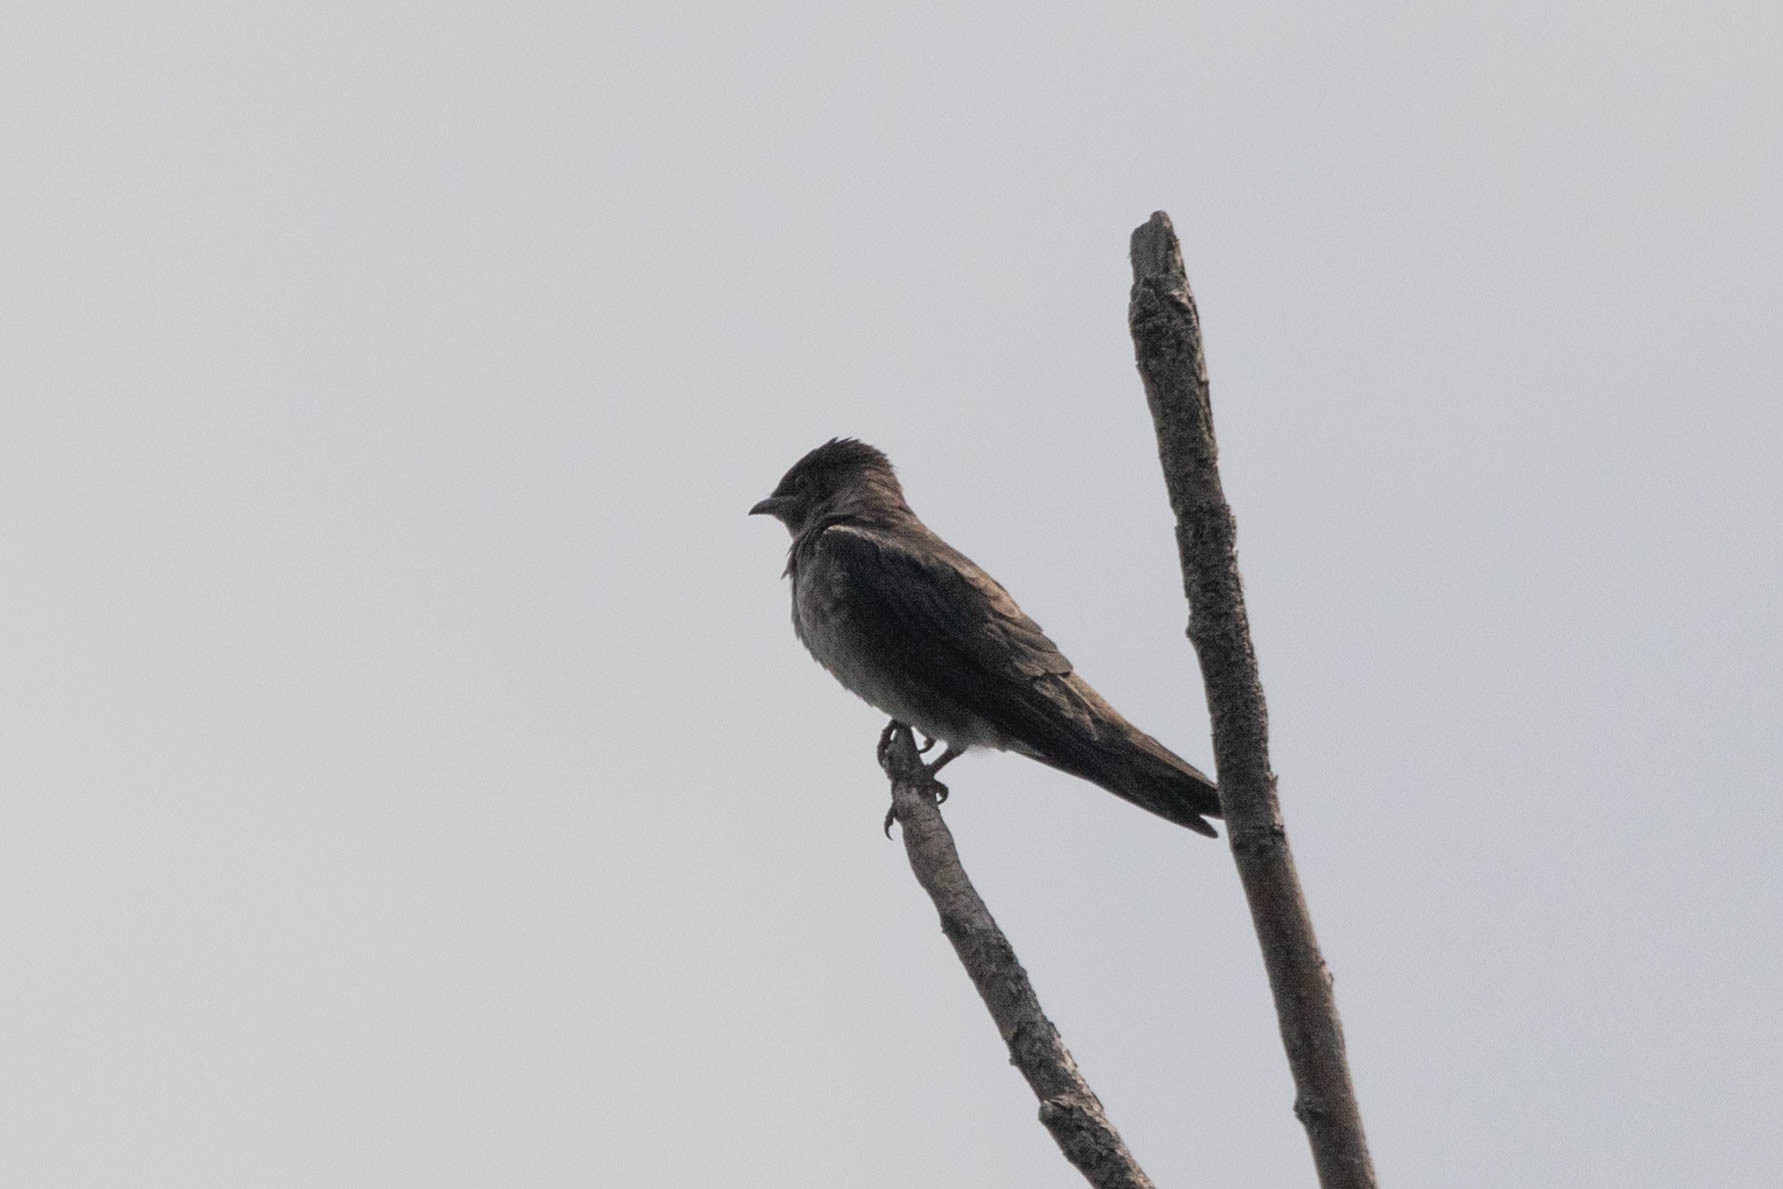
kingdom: Animalia
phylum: Chordata
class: Aves
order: Passeriformes
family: Hirundinidae
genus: Progne
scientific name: Progne subis
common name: Purple martin
